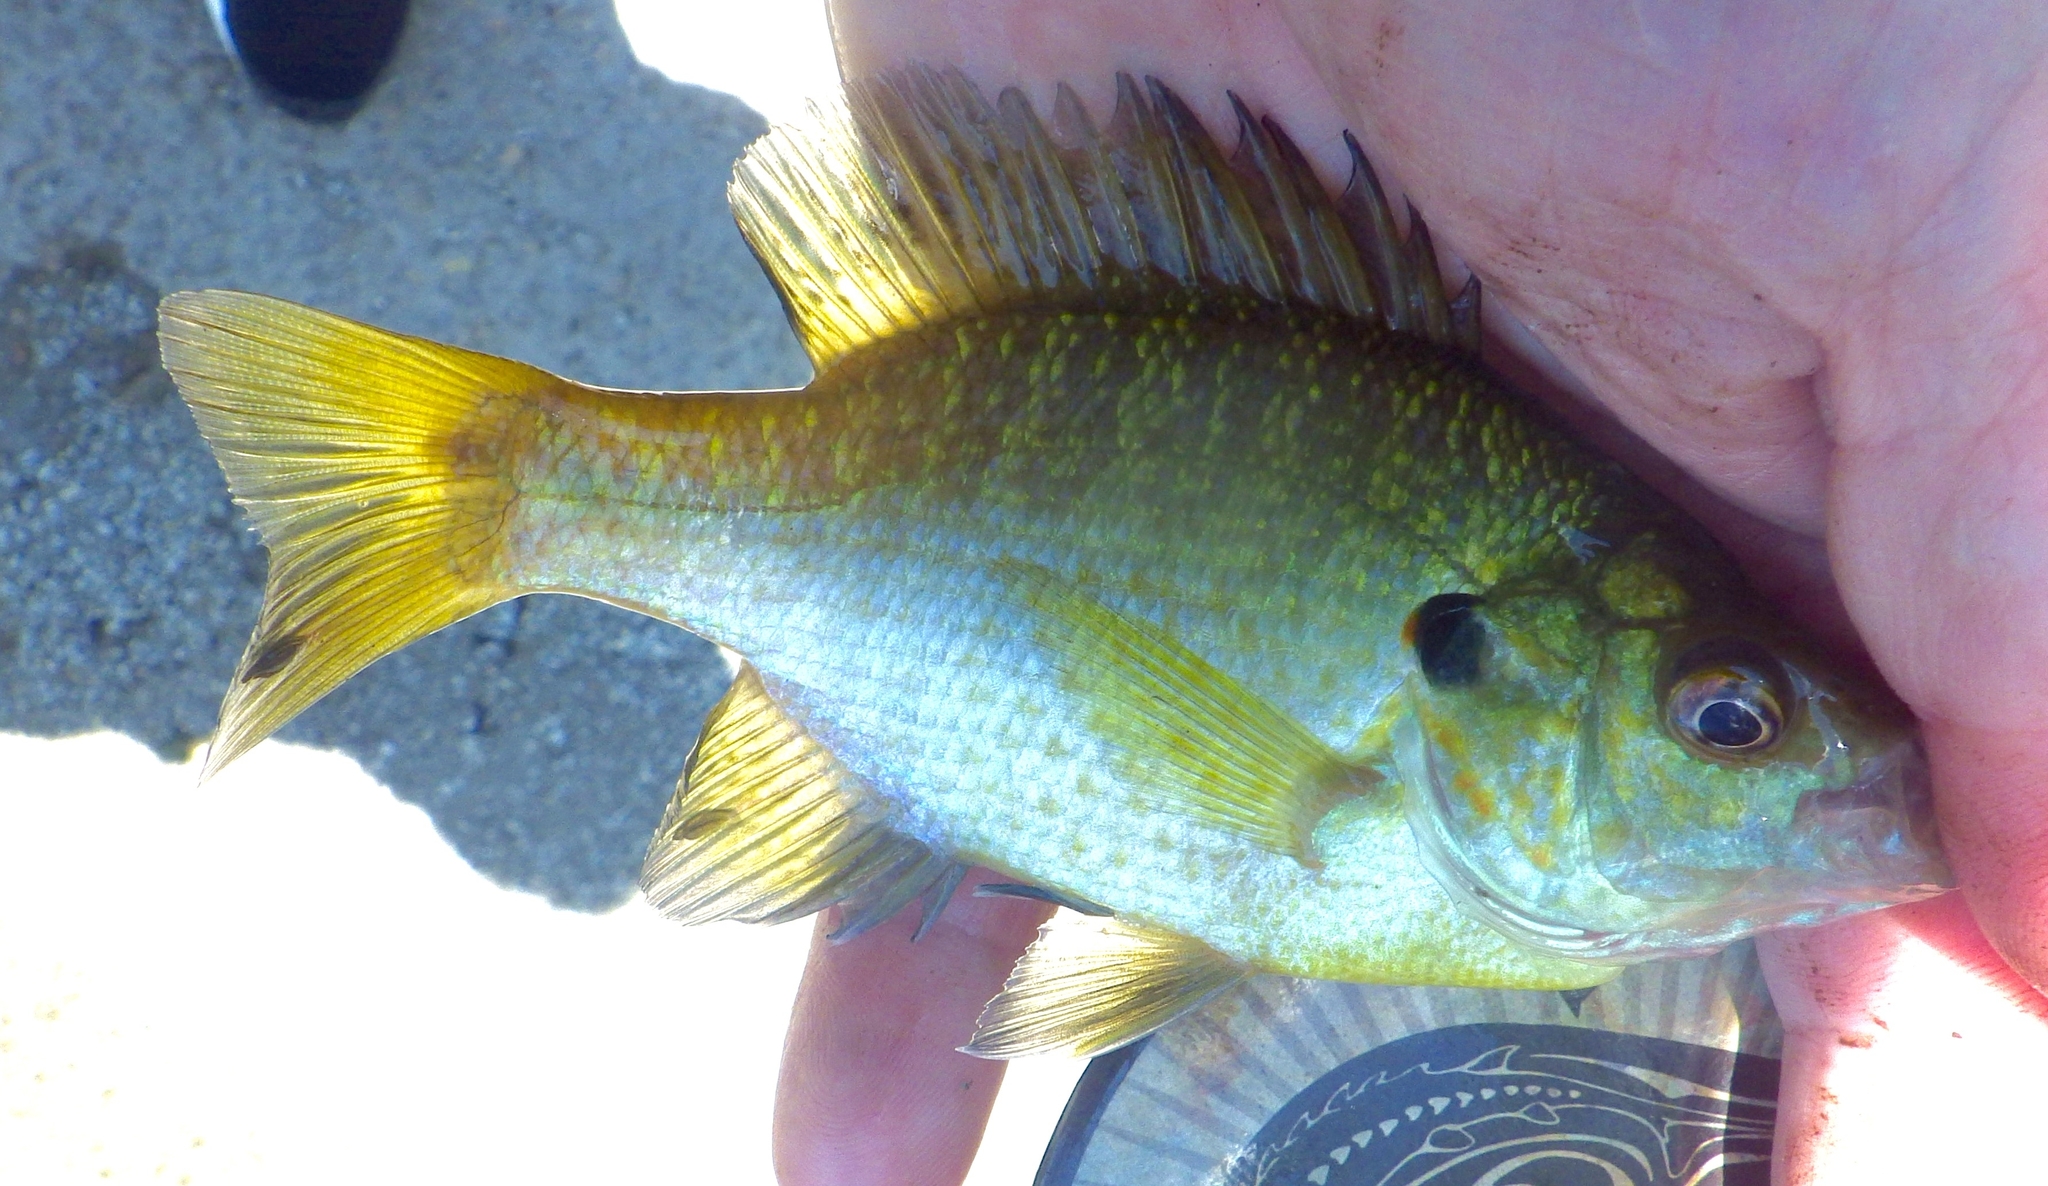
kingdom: Animalia
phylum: Chordata
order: Perciformes
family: Centrarchidae
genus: Lepomis
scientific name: Lepomis microlophus
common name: Redear sunfish
